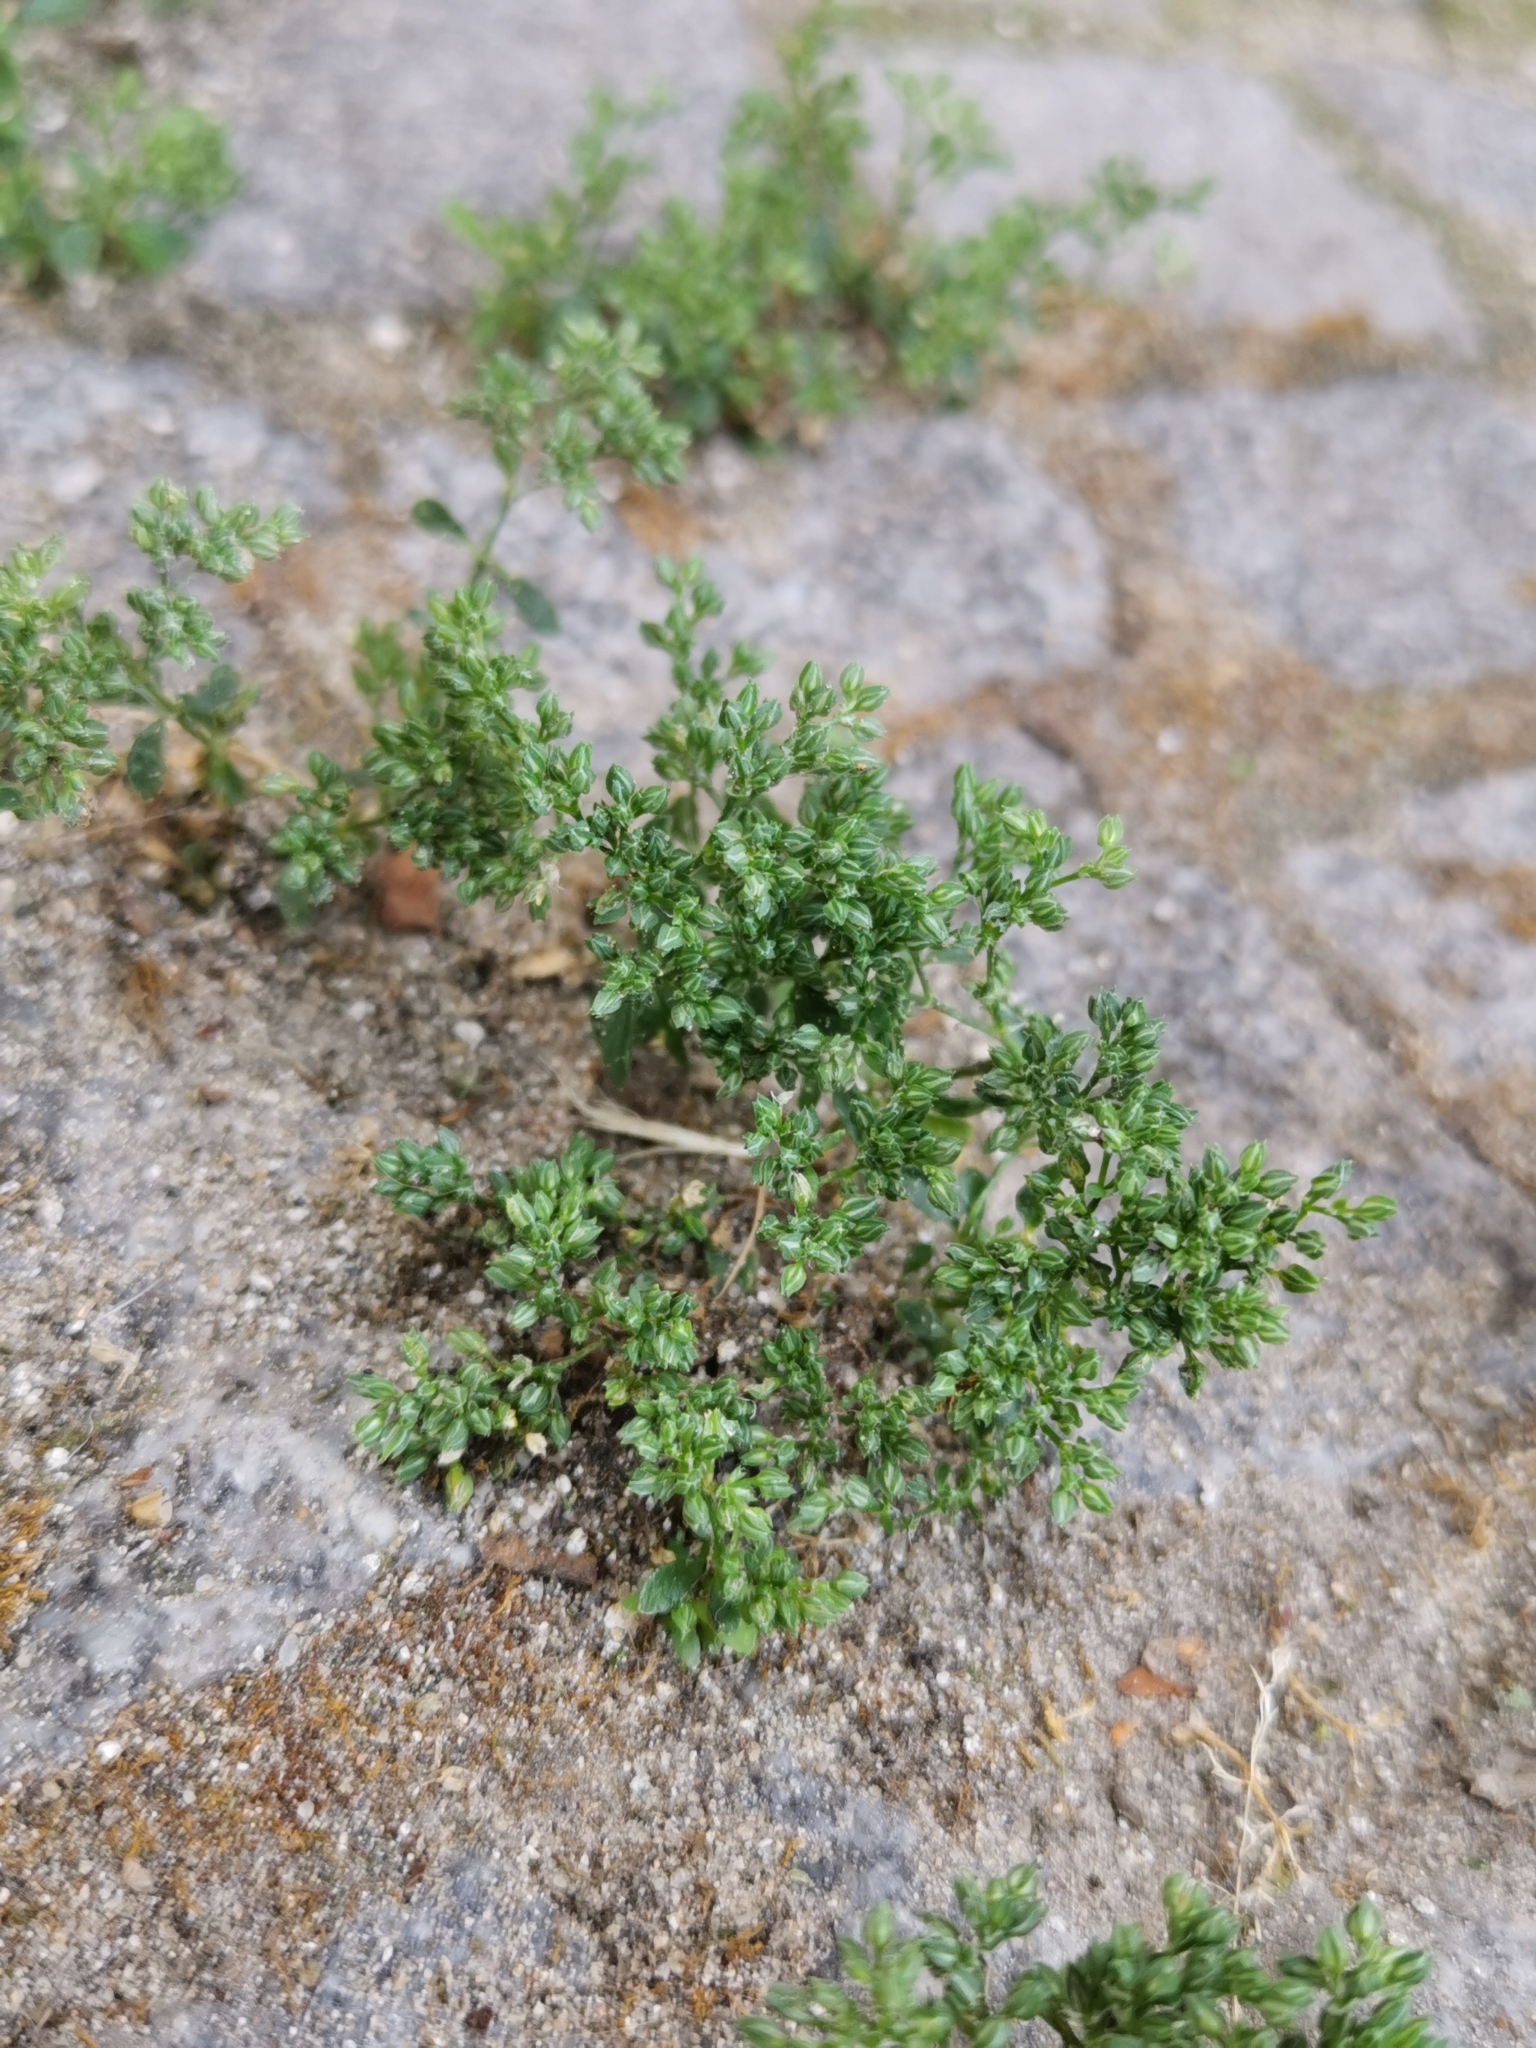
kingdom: Plantae
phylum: Tracheophyta
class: Magnoliopsida
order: Caryophyllales
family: Caryophyllaceae
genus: Polycarpon
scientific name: Polycarpon tetraphyllum
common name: Four-leaved all-seed
